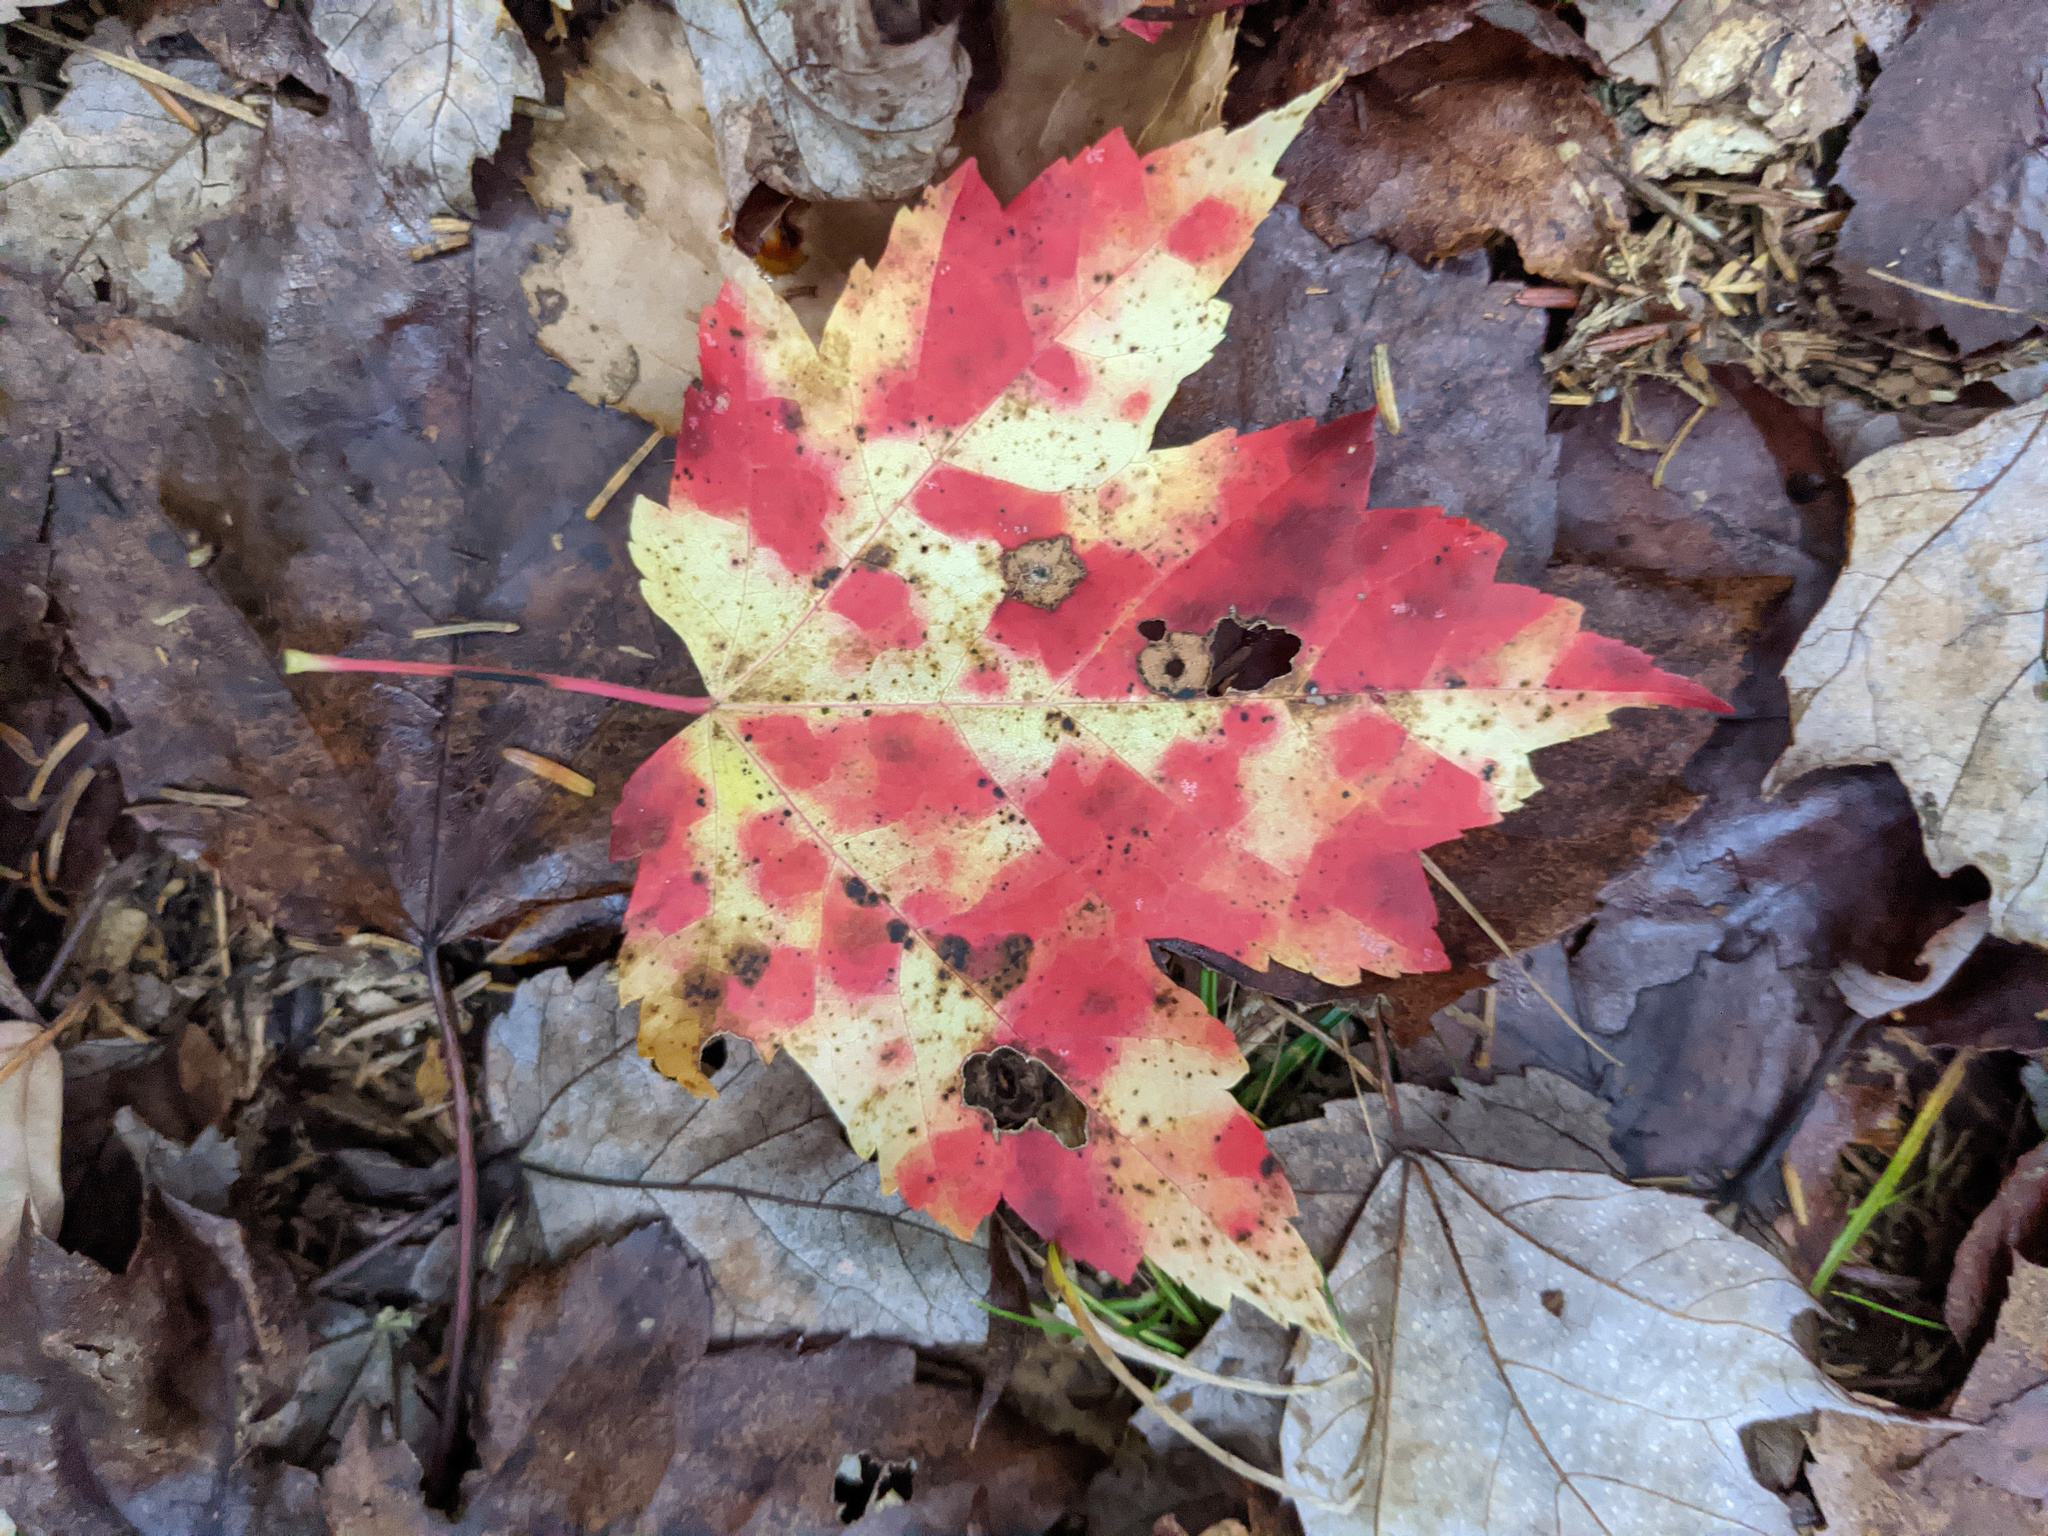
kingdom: Plantae
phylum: Tracheophyta
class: Magnoliopsida
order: Sapindales
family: Sapindaceae
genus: Acer
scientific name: Acer rubrum
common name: Red maple
